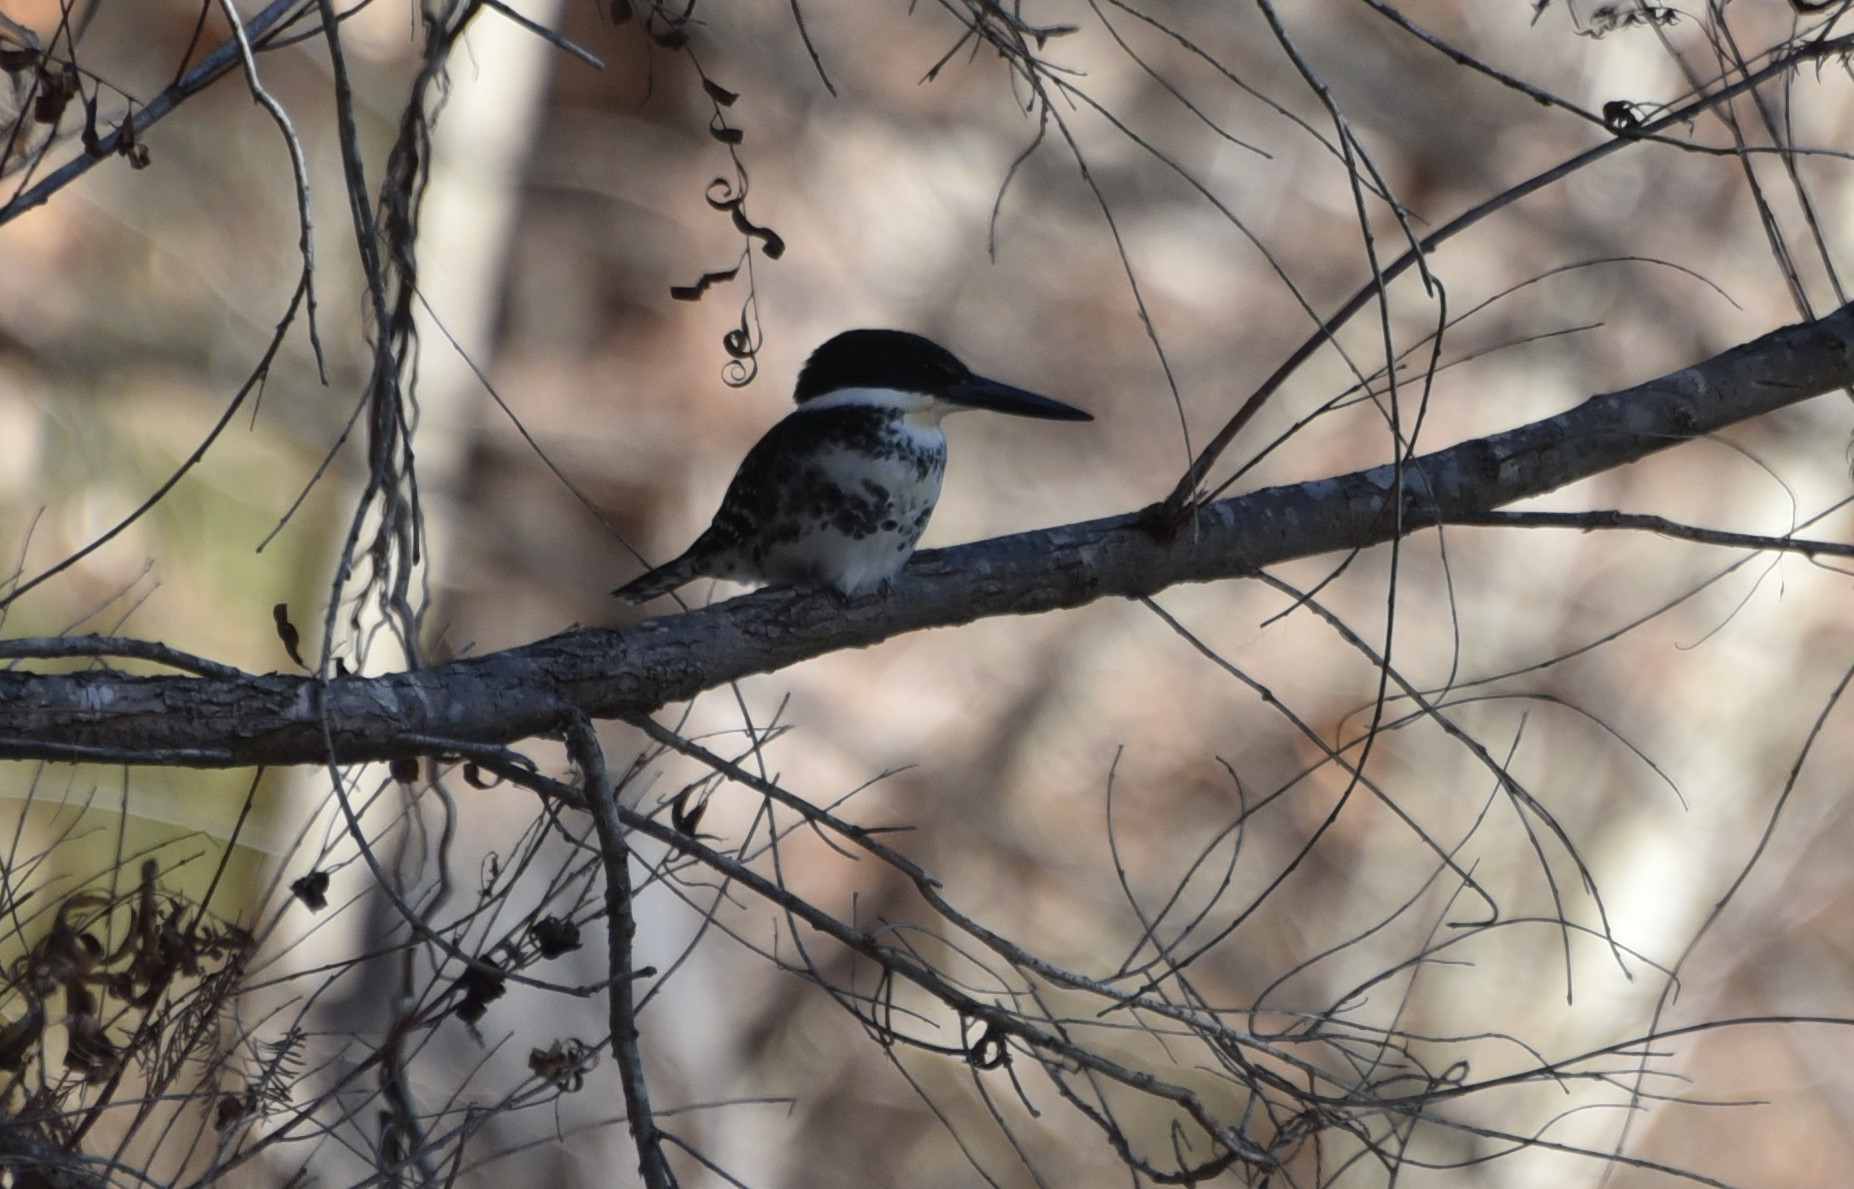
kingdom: Animalia
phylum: Chordata
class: Aves
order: Coraciiformes
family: Alcedinidae
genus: Chloroceryle
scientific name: Chloroceryle americana
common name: Green kingfisher
